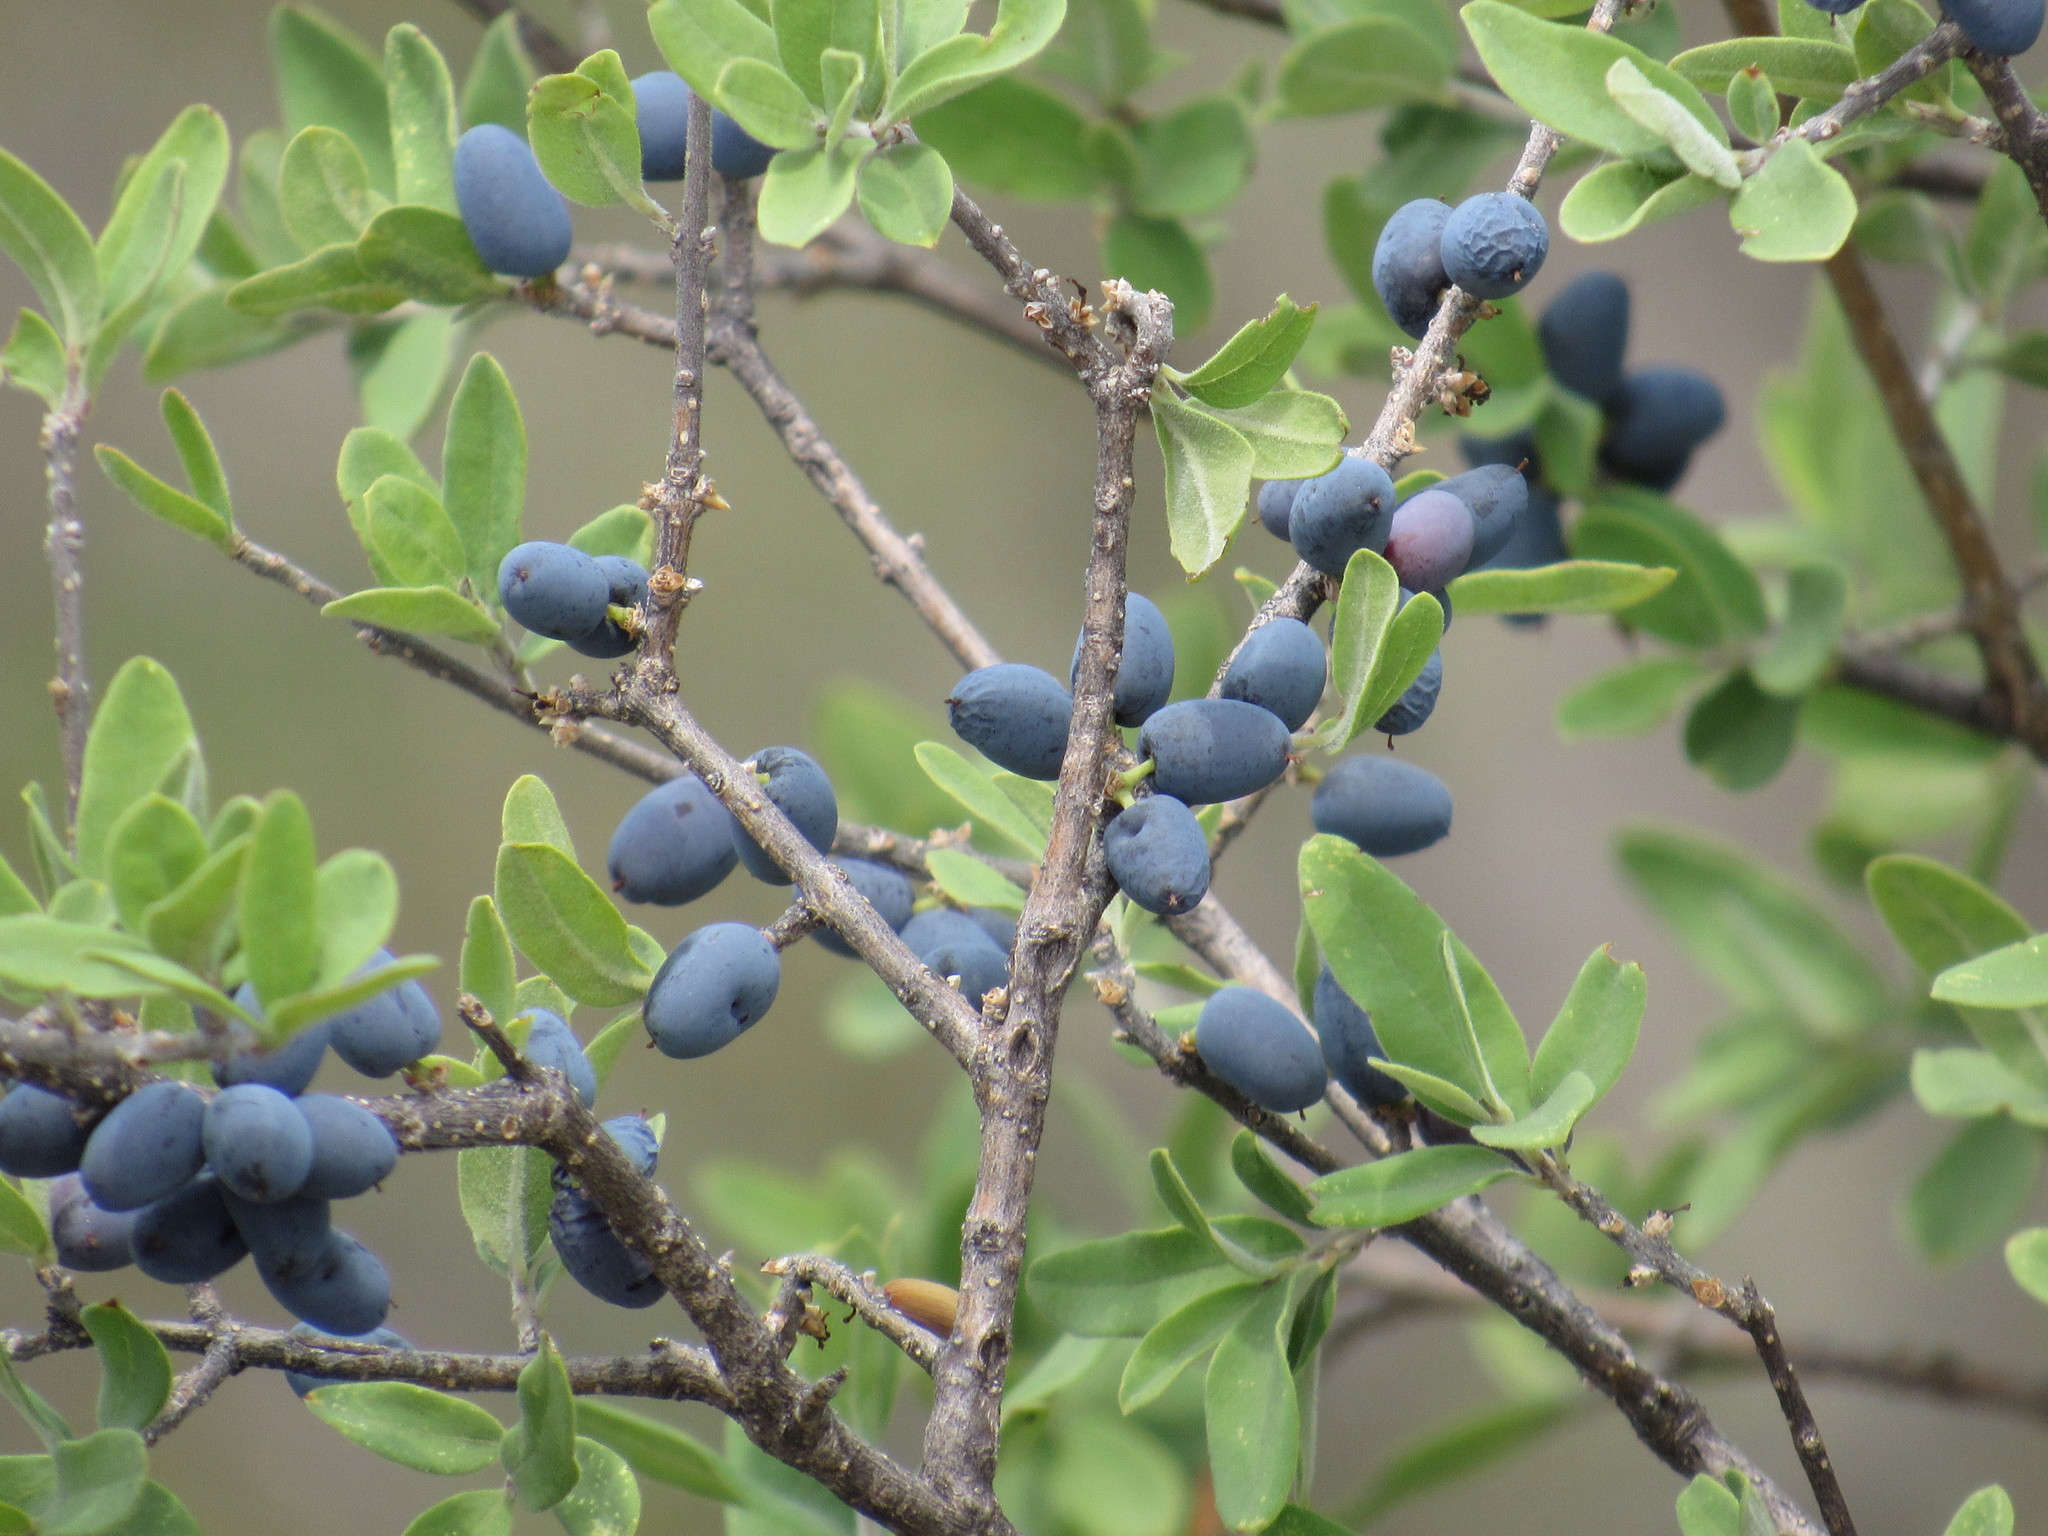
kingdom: Plantae
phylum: Tracheophyta
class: Magnoliopsida
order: Lamiales
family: Oleaceae
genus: Forestiera
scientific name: Forestiera angustifolia
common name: Elbowbush
